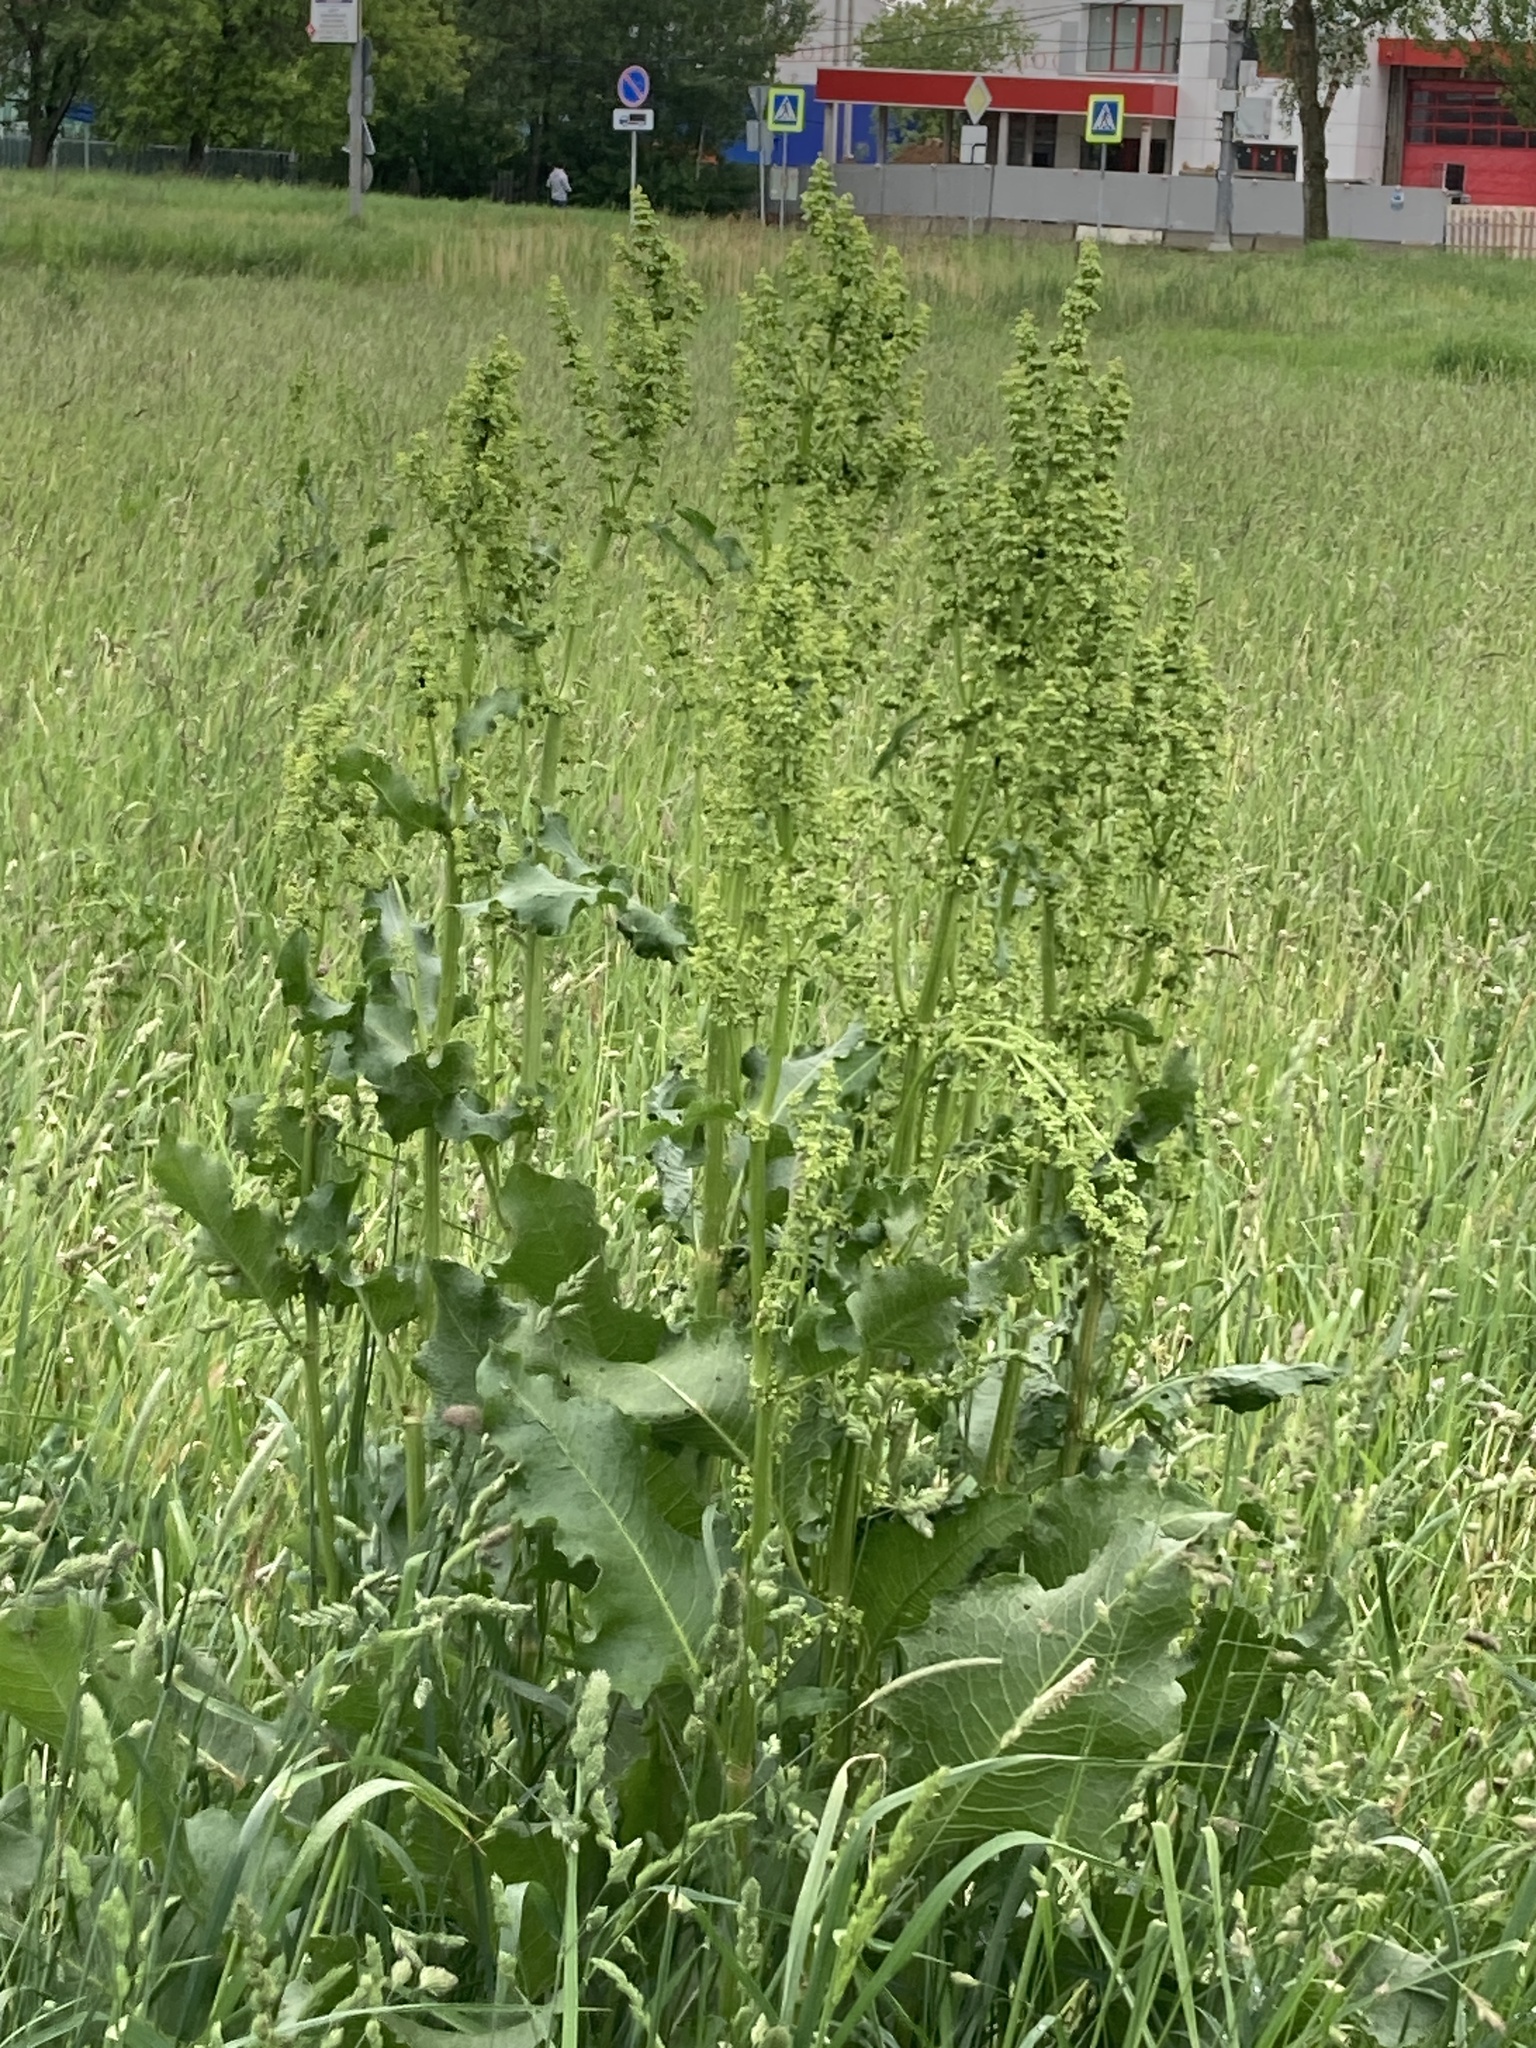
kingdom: Plantae
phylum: Tracheophyta
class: Magnoliopsida
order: Caryophyllales
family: Polygonaceae
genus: Rumex
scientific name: Rumex confertus
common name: Russian dock
